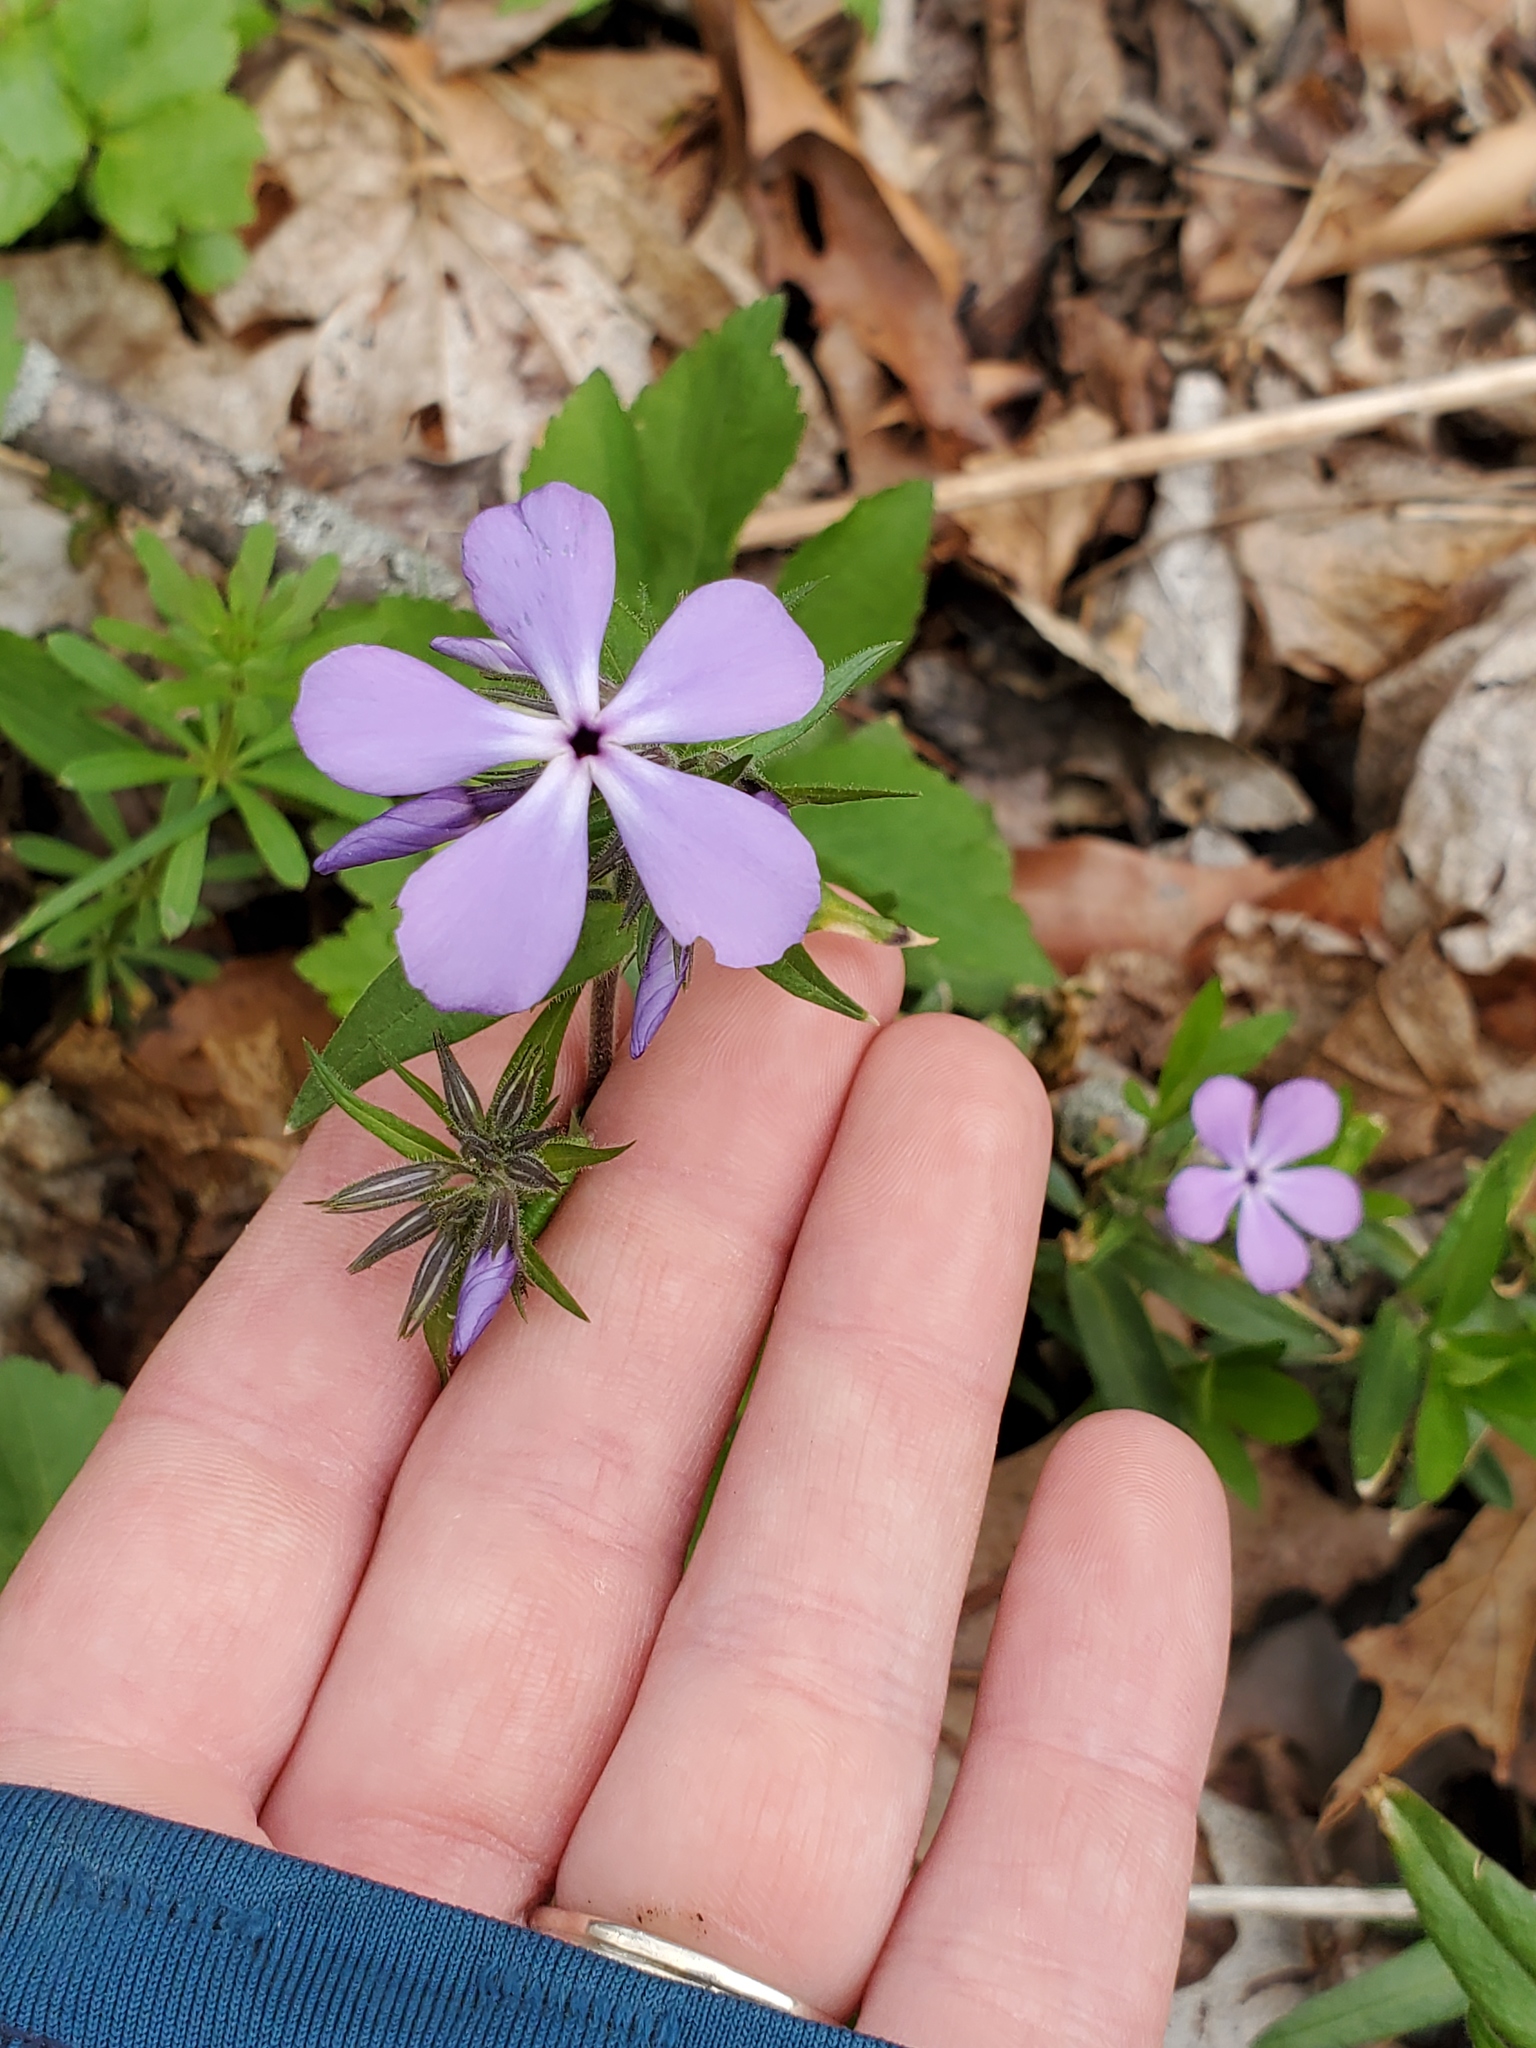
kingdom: Plantae
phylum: Tracheophyta
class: Magnoliopsida
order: Ericales
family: Polemoniaceae
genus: Phlox
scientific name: Phlox divaricata
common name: Blue phlox
